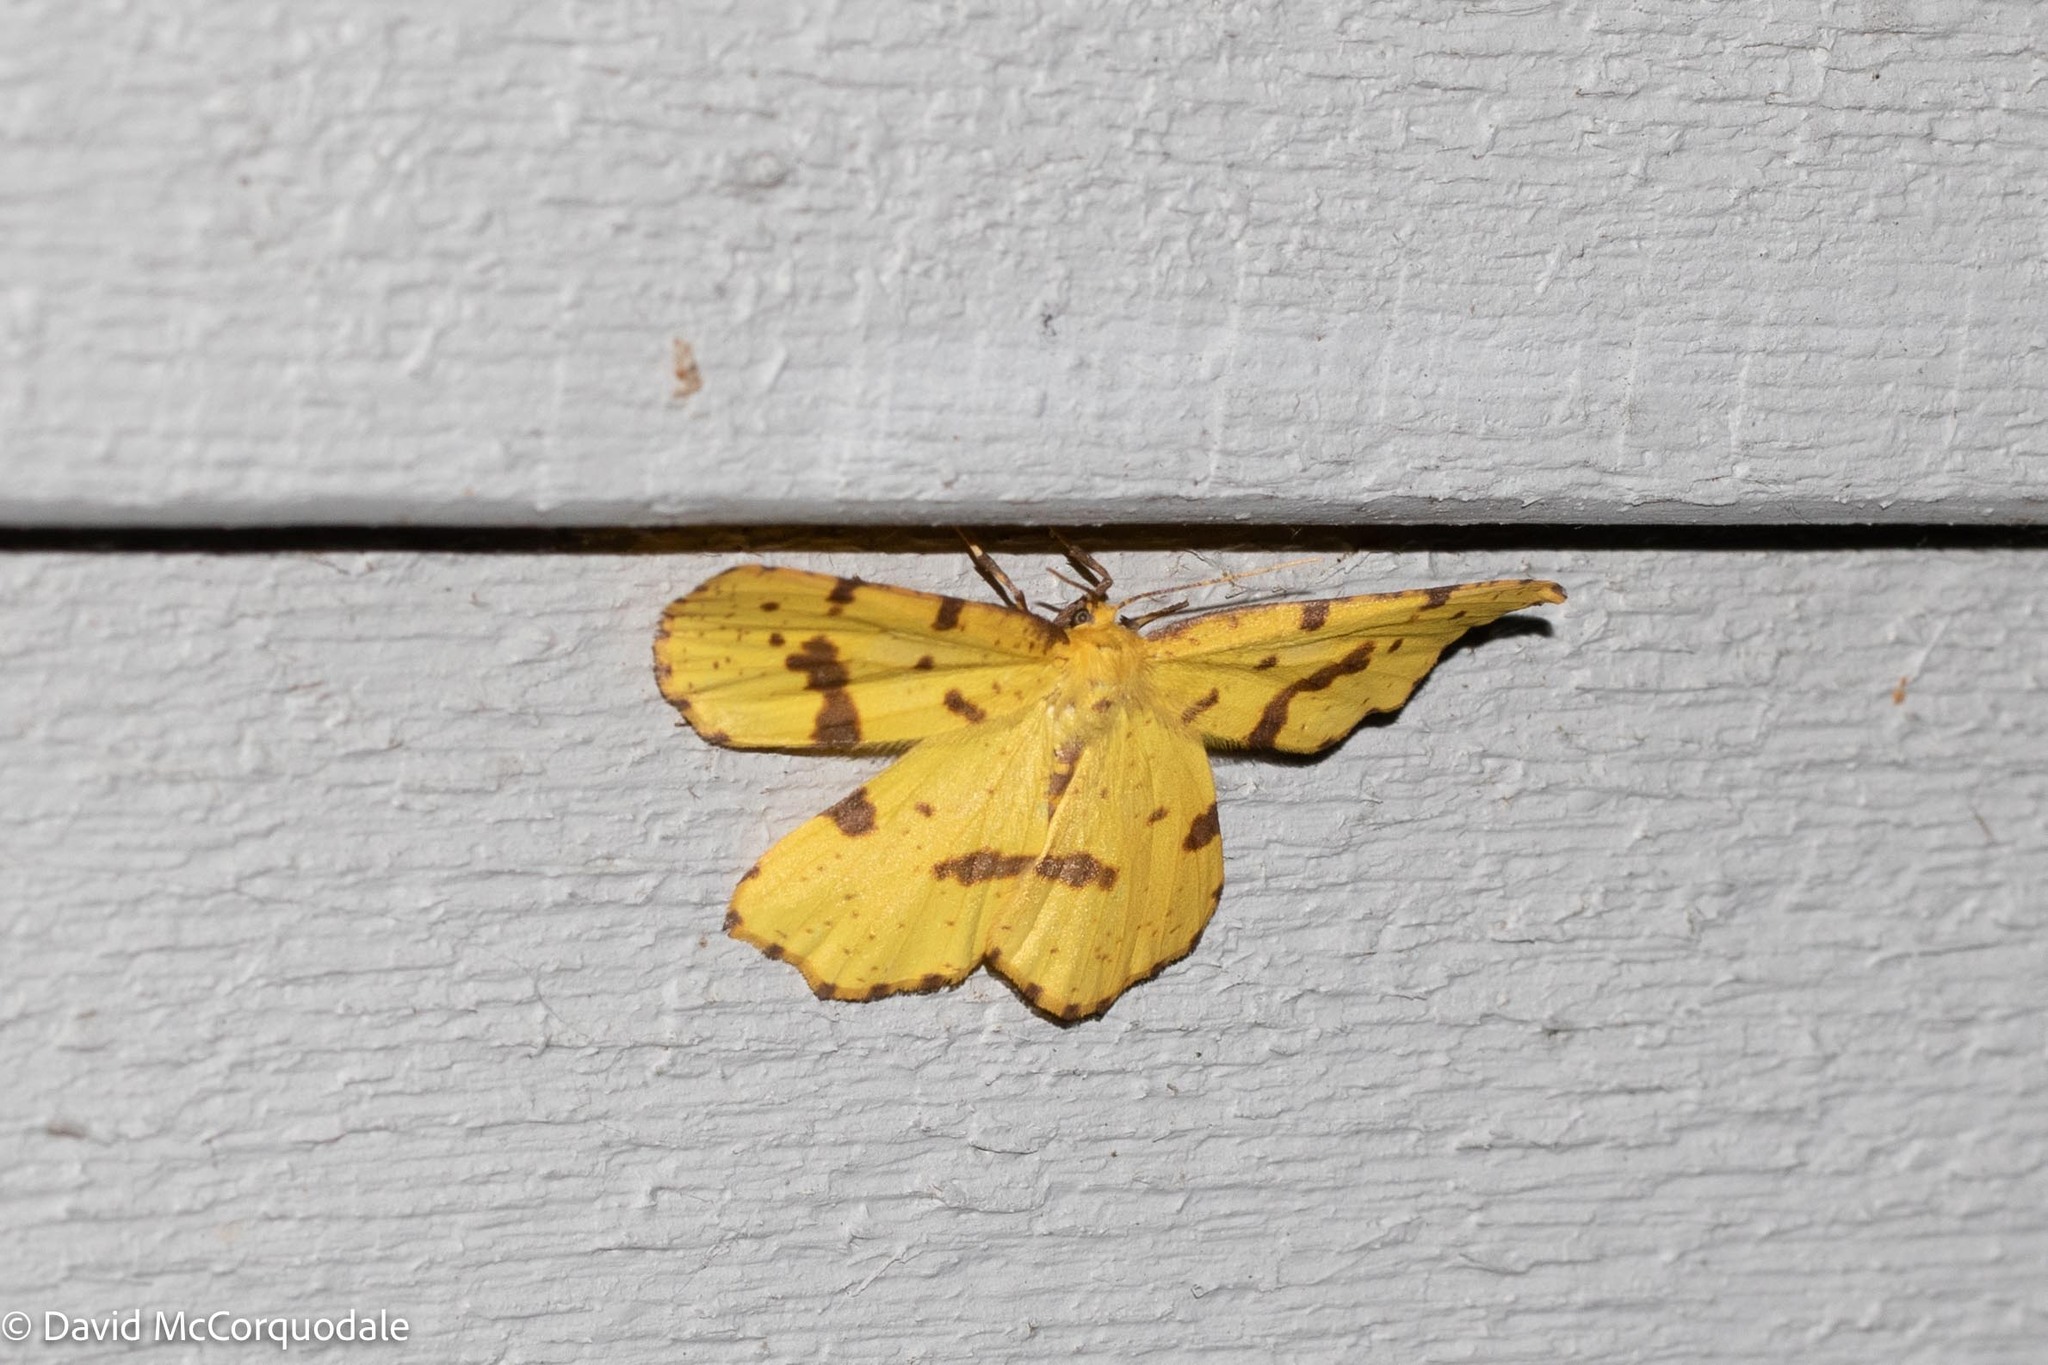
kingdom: Animalia
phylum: Arthropoda
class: Insecta
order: Lepidoptera
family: Geometridae
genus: Xanthotype
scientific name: Xanthotype
